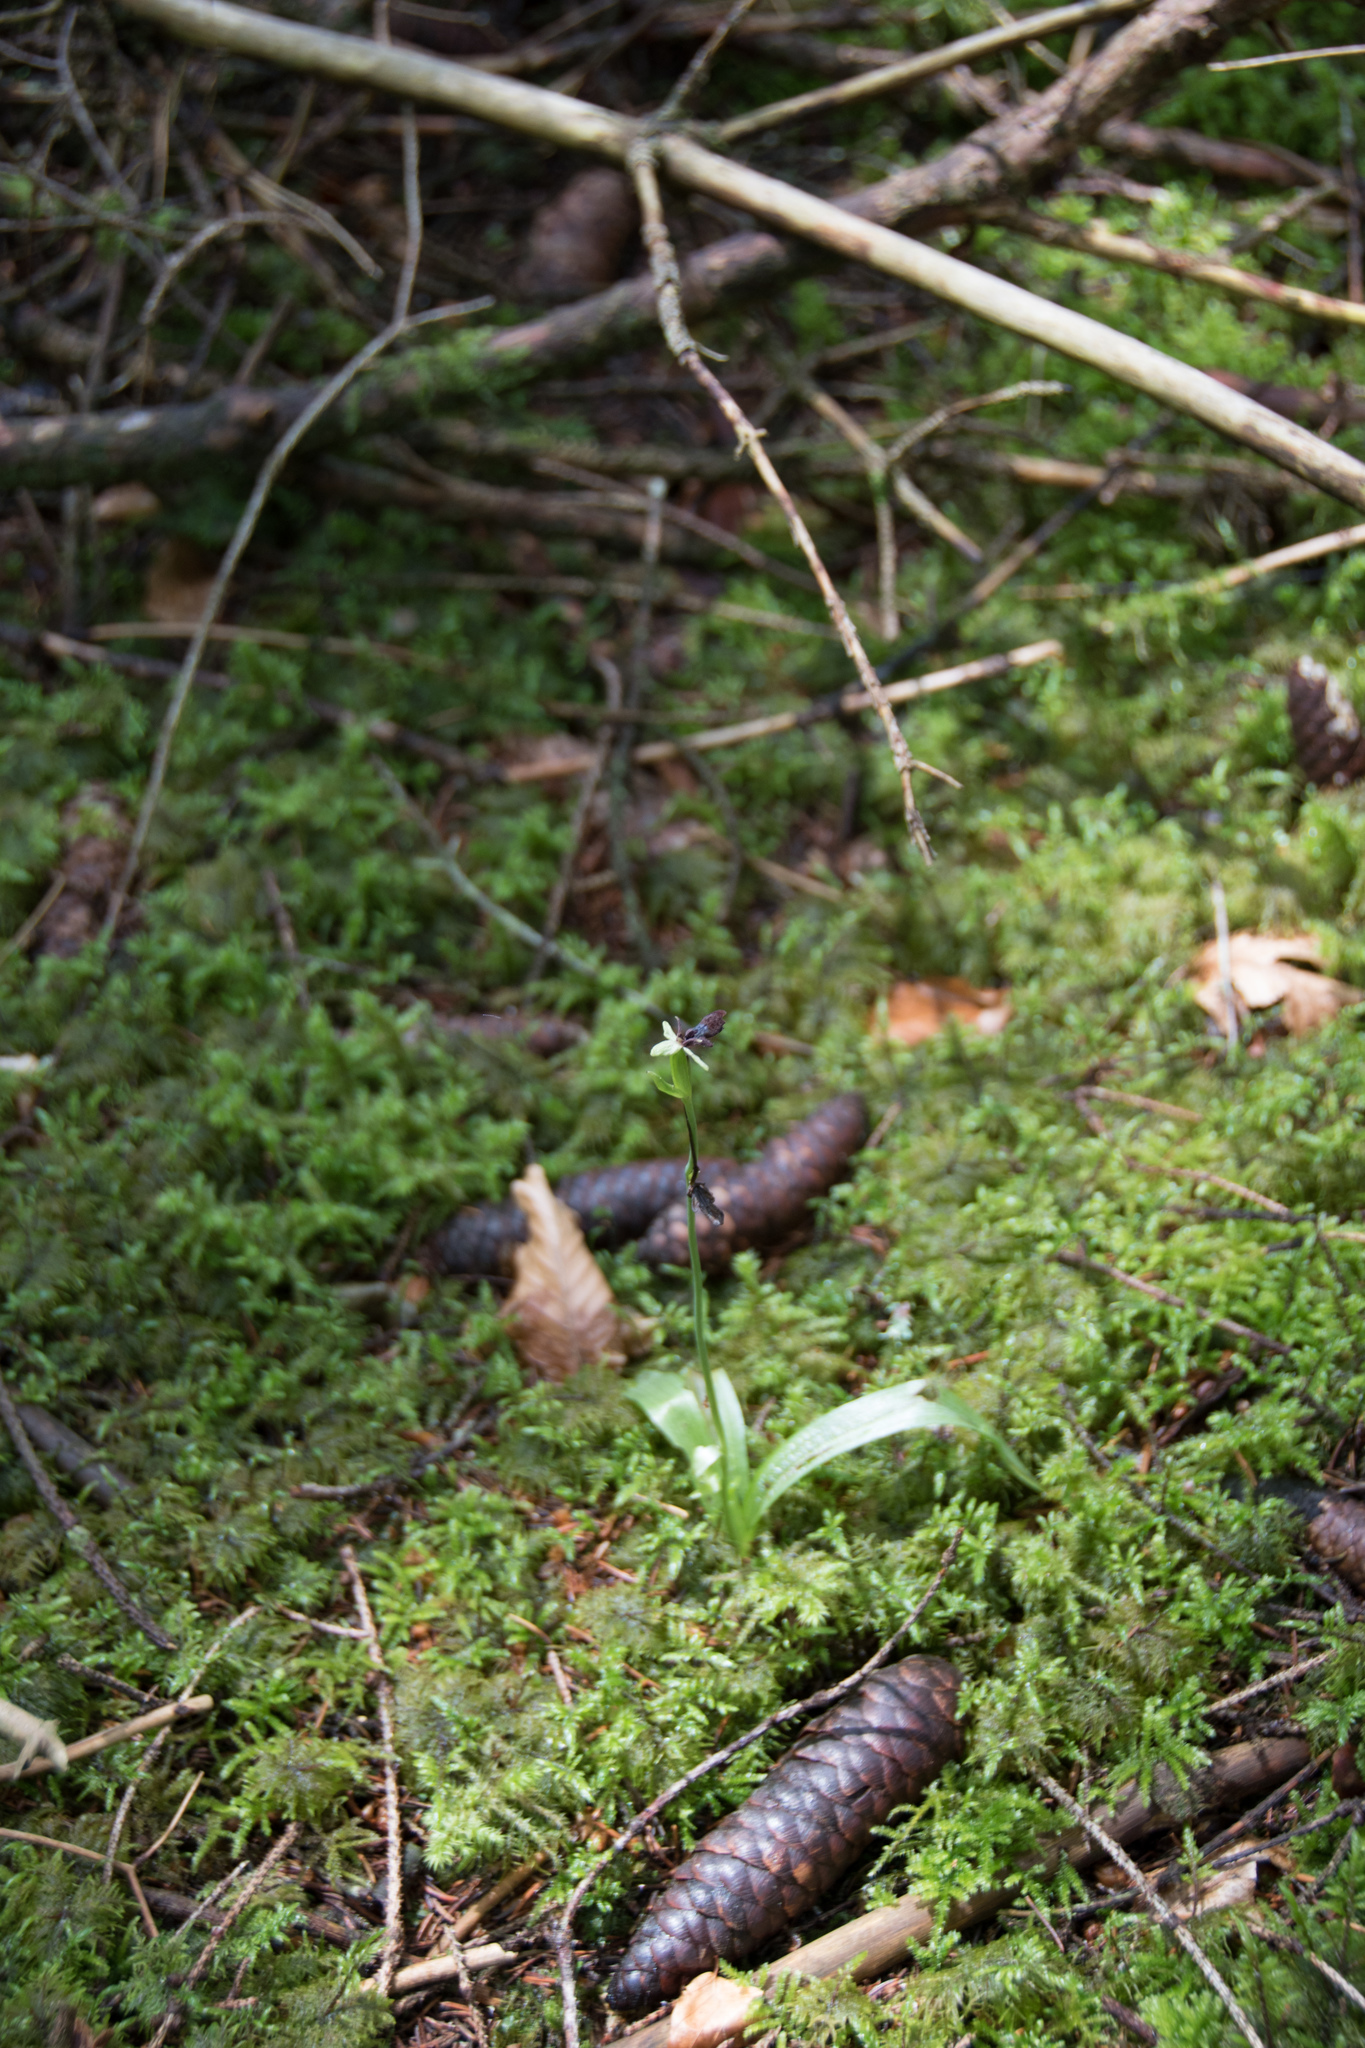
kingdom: Plantae
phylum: Tracheophyta
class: Liliopsida
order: Asparagales
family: Orchidaceae
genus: Ophrys
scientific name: Ophrys insectifera
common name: Fly orchid
